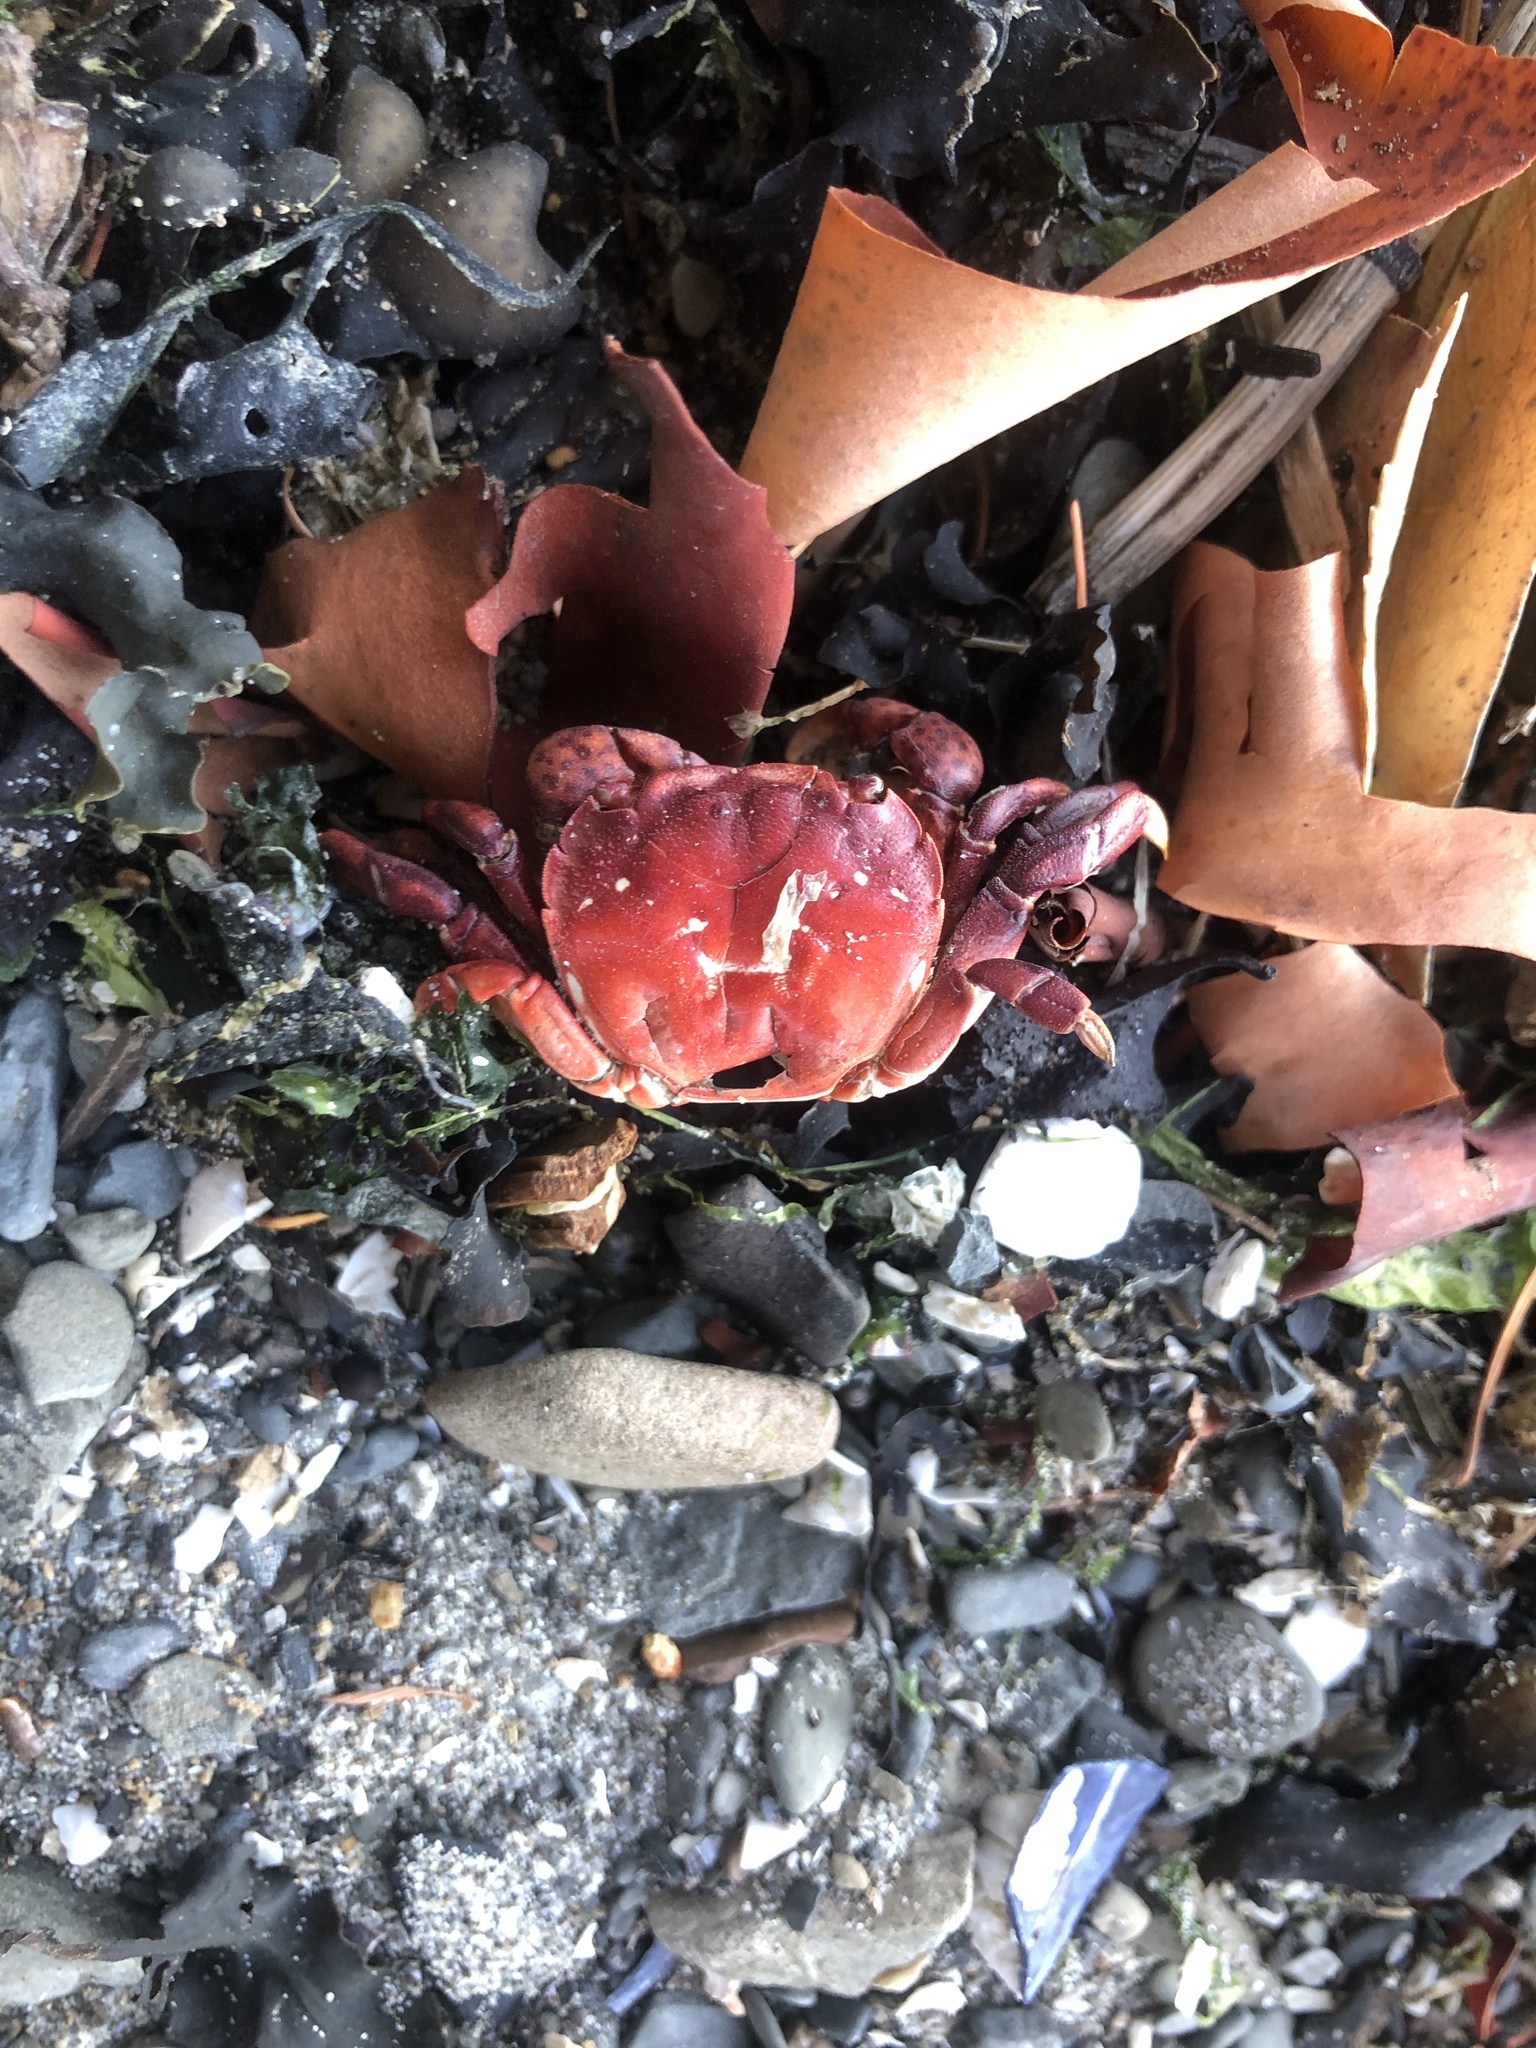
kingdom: Animalia
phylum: Arthropoda
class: Malacostraca
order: Decapoda
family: Varunidae
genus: Hemigrapsus
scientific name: Hemigrapsus nudus
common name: Purple shore crab
